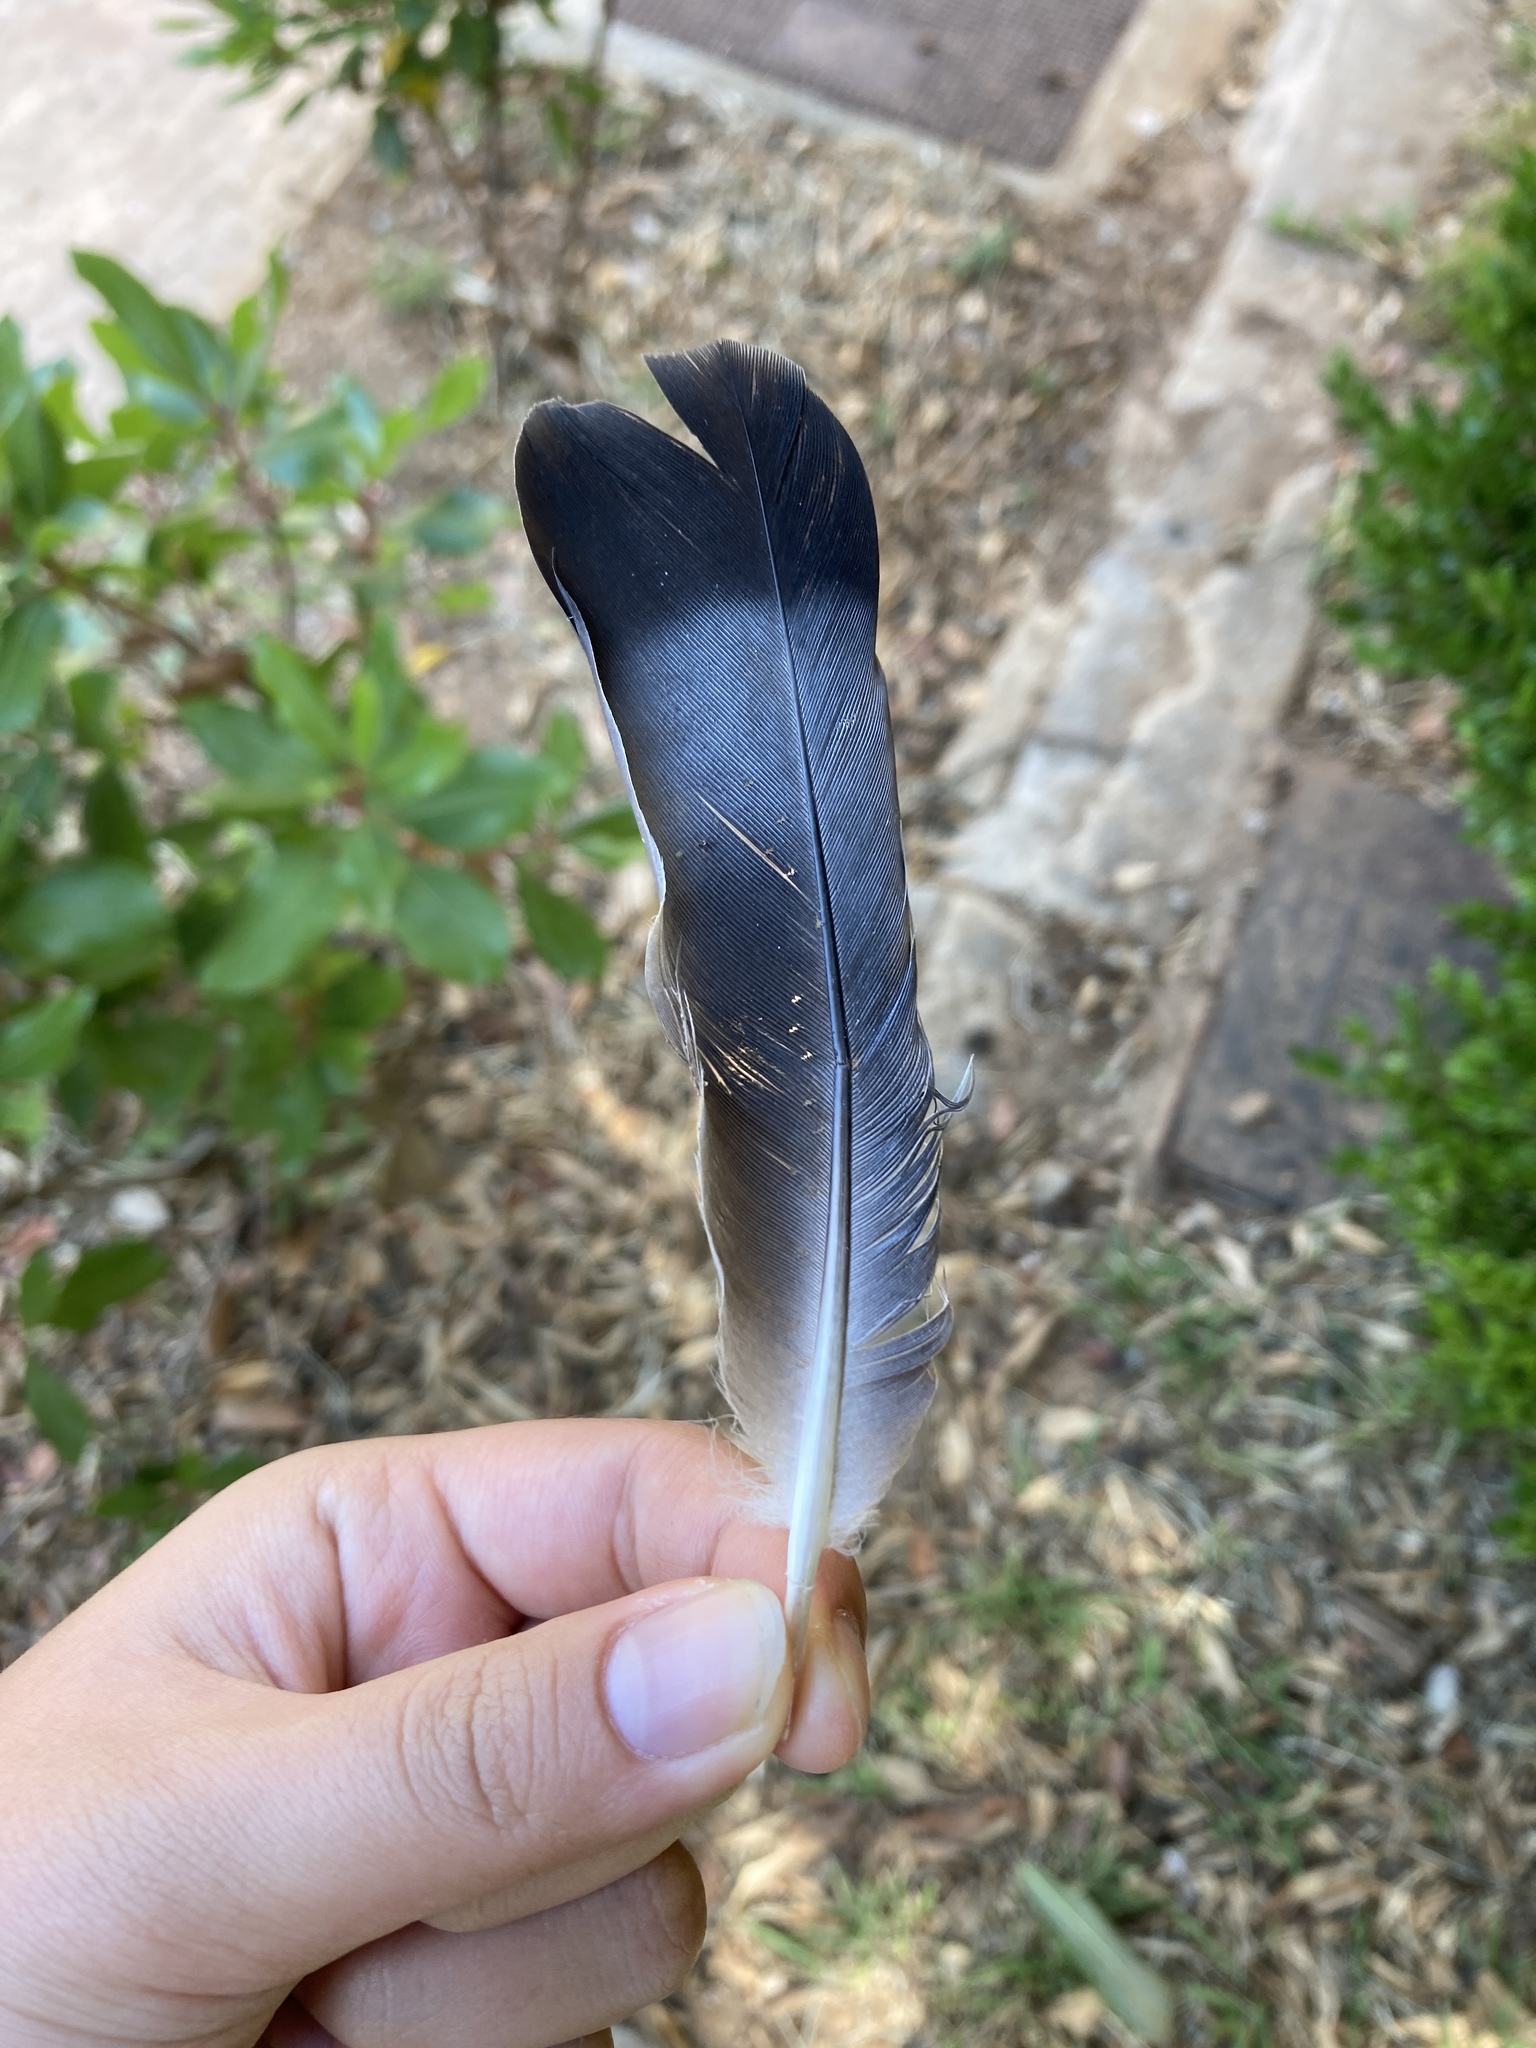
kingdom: Animalia
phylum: Chordata
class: Aves
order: Columbiformes
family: Columbidae
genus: Columba
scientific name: Columba livia
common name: Rock pigeon
